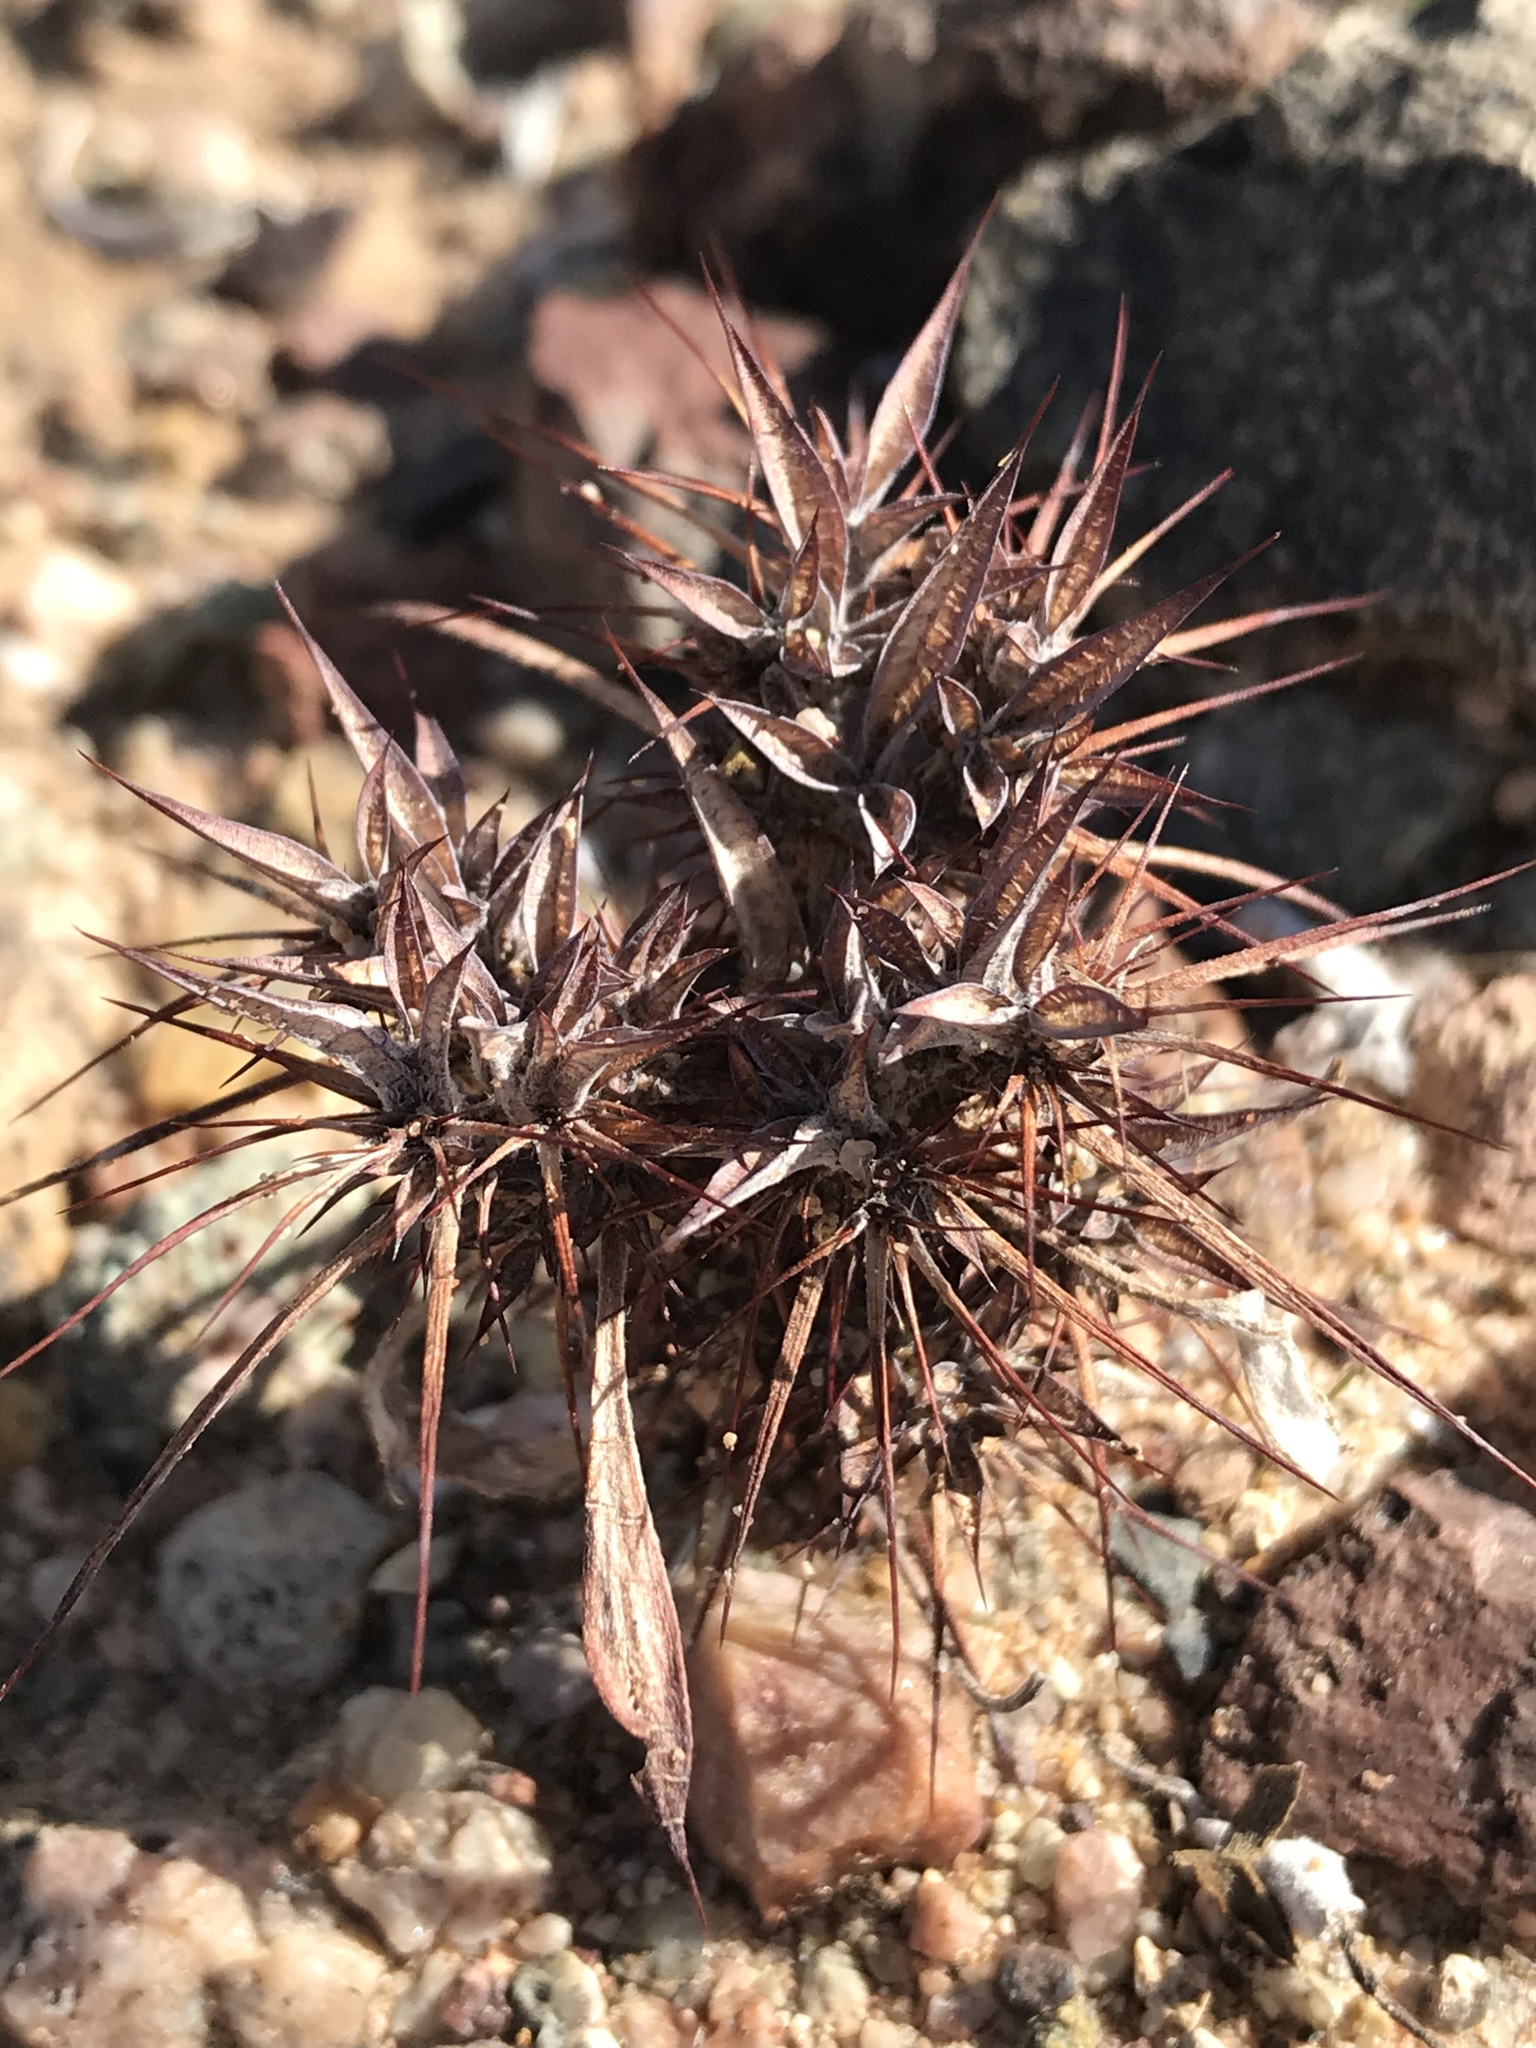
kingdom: Plantae
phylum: Tracheophyta
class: Magnoliopsida
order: Caryophyllales
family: Polygonaceae
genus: Chorizanthe
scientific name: Chorizanthe rigida
